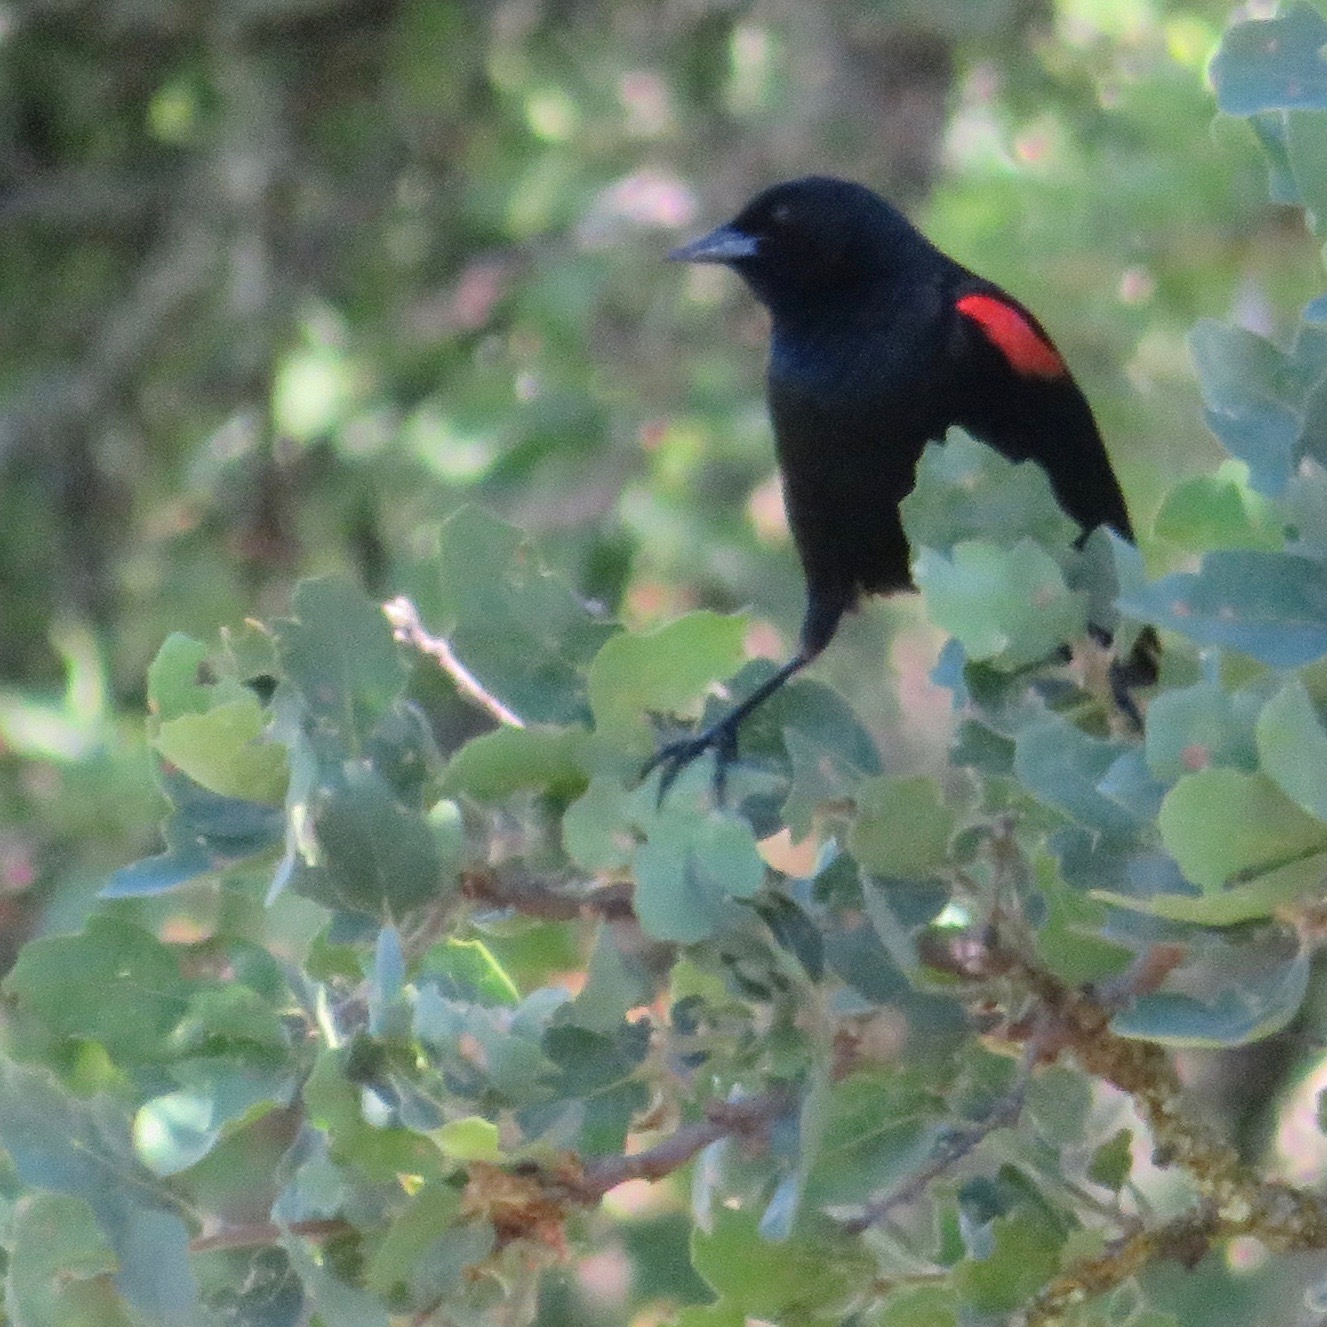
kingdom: Animalia
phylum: Chordata
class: Aves
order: Passeriformes
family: Icteridae
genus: Agelaius
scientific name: Agelaius phoeniceus
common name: Red-winged blackbird
